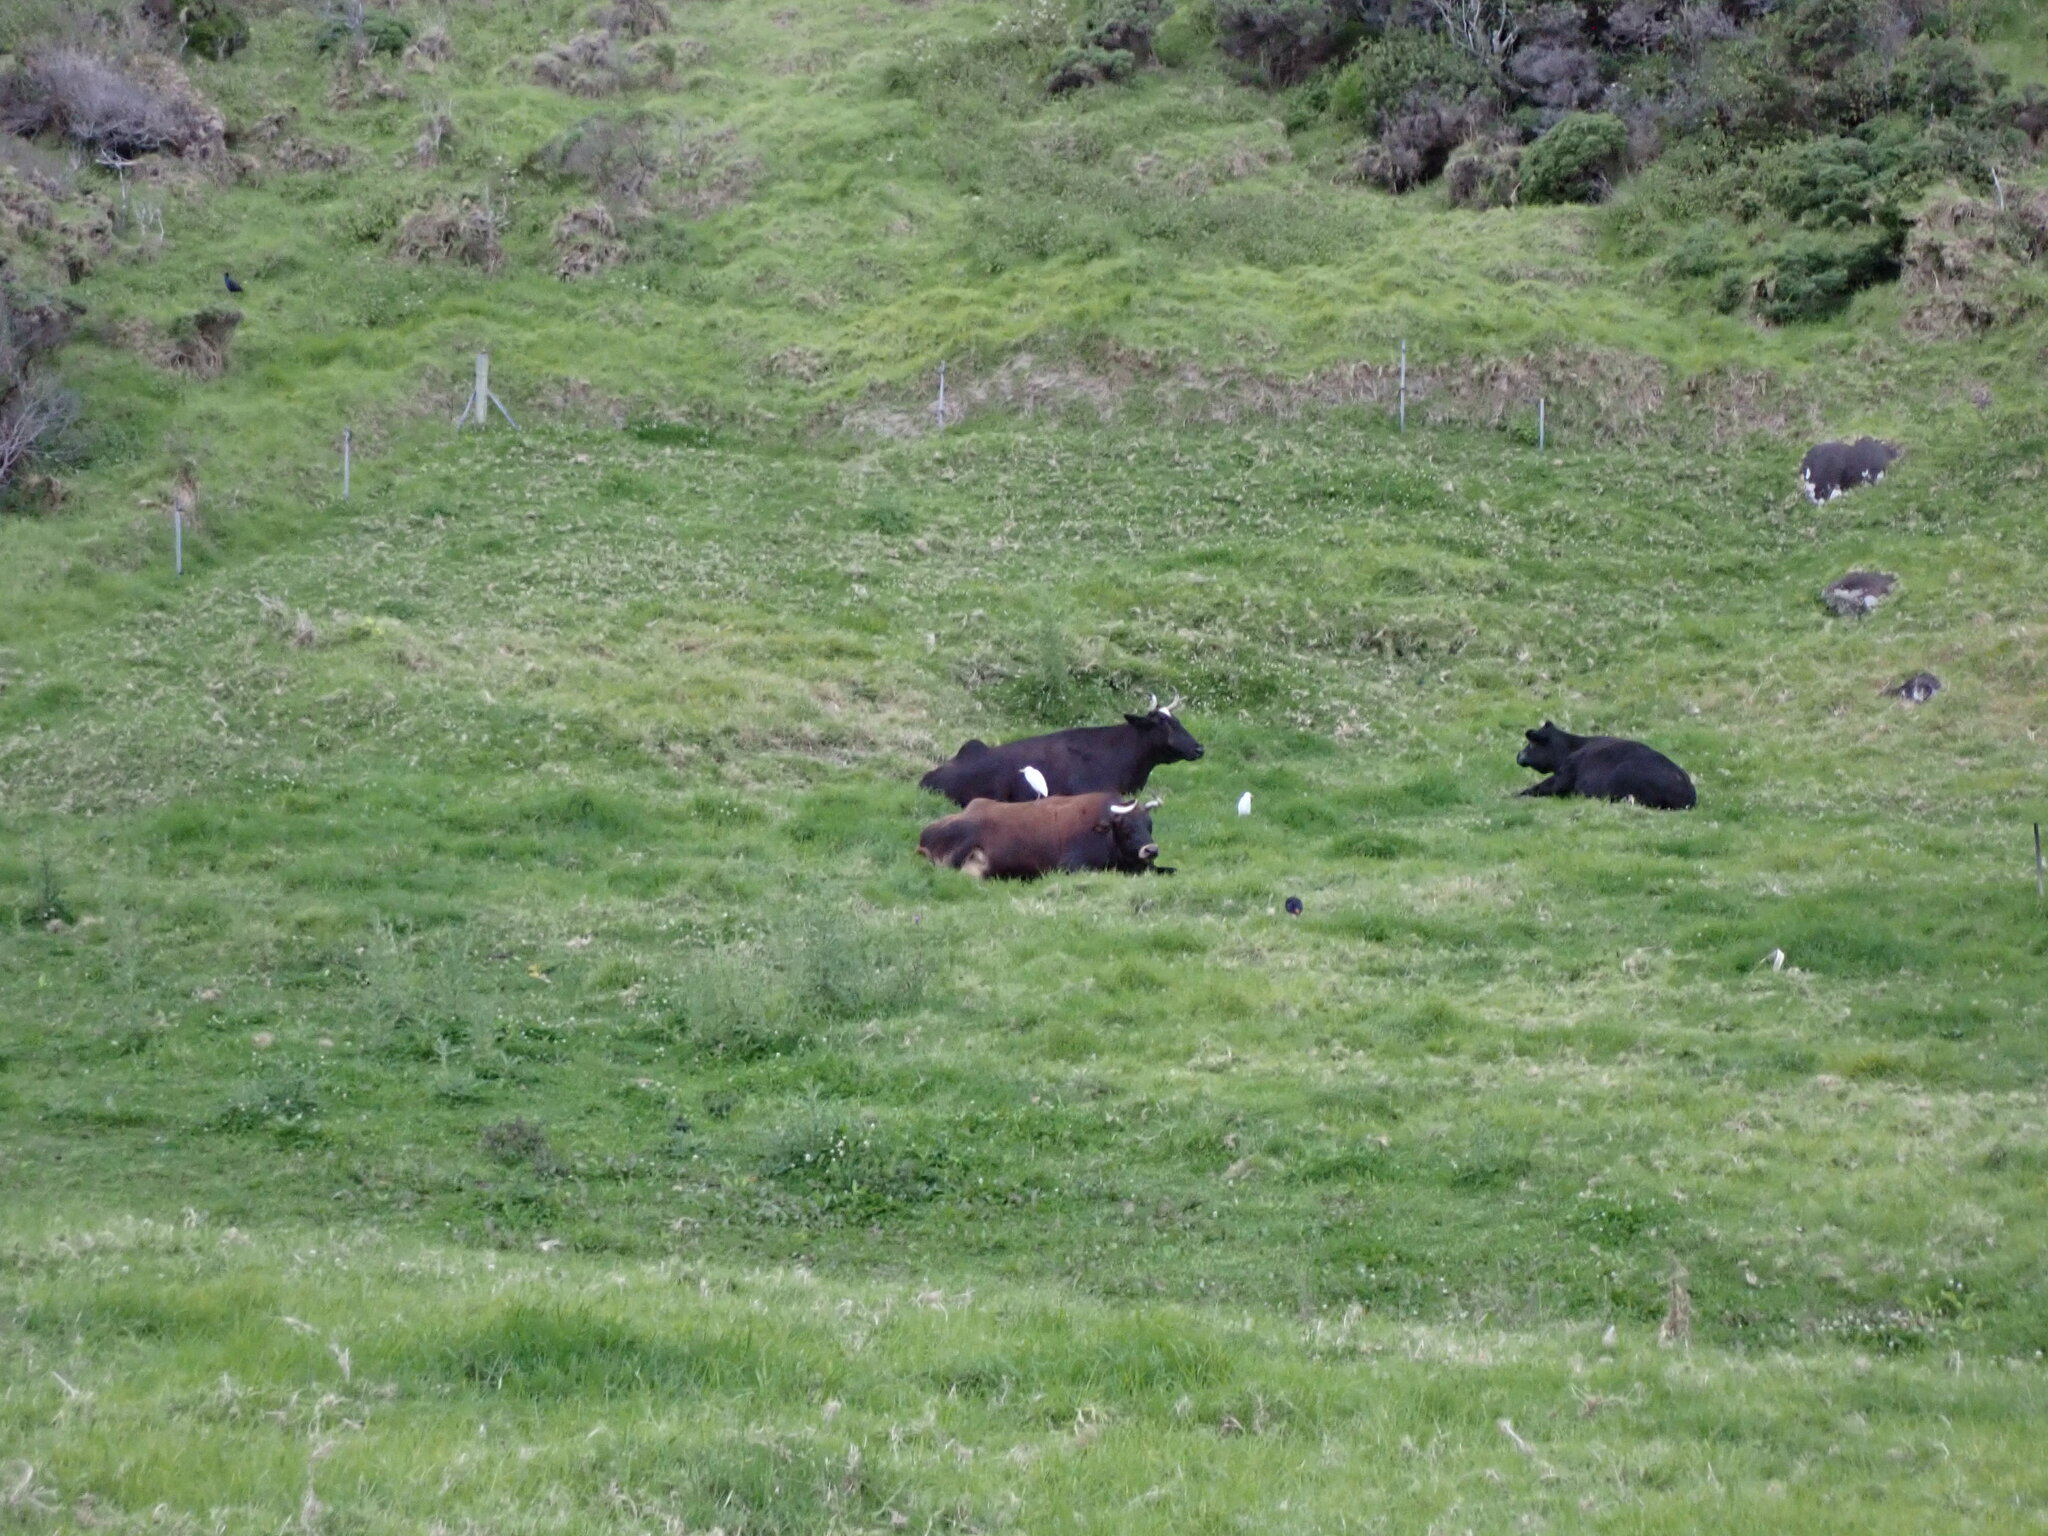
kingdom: Animalia
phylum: Chordata
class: Aves
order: Pelecaniformes
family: Ardeidae
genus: Bubulcus
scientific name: Bubulcus coromandus
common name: Eastern cattle egret
